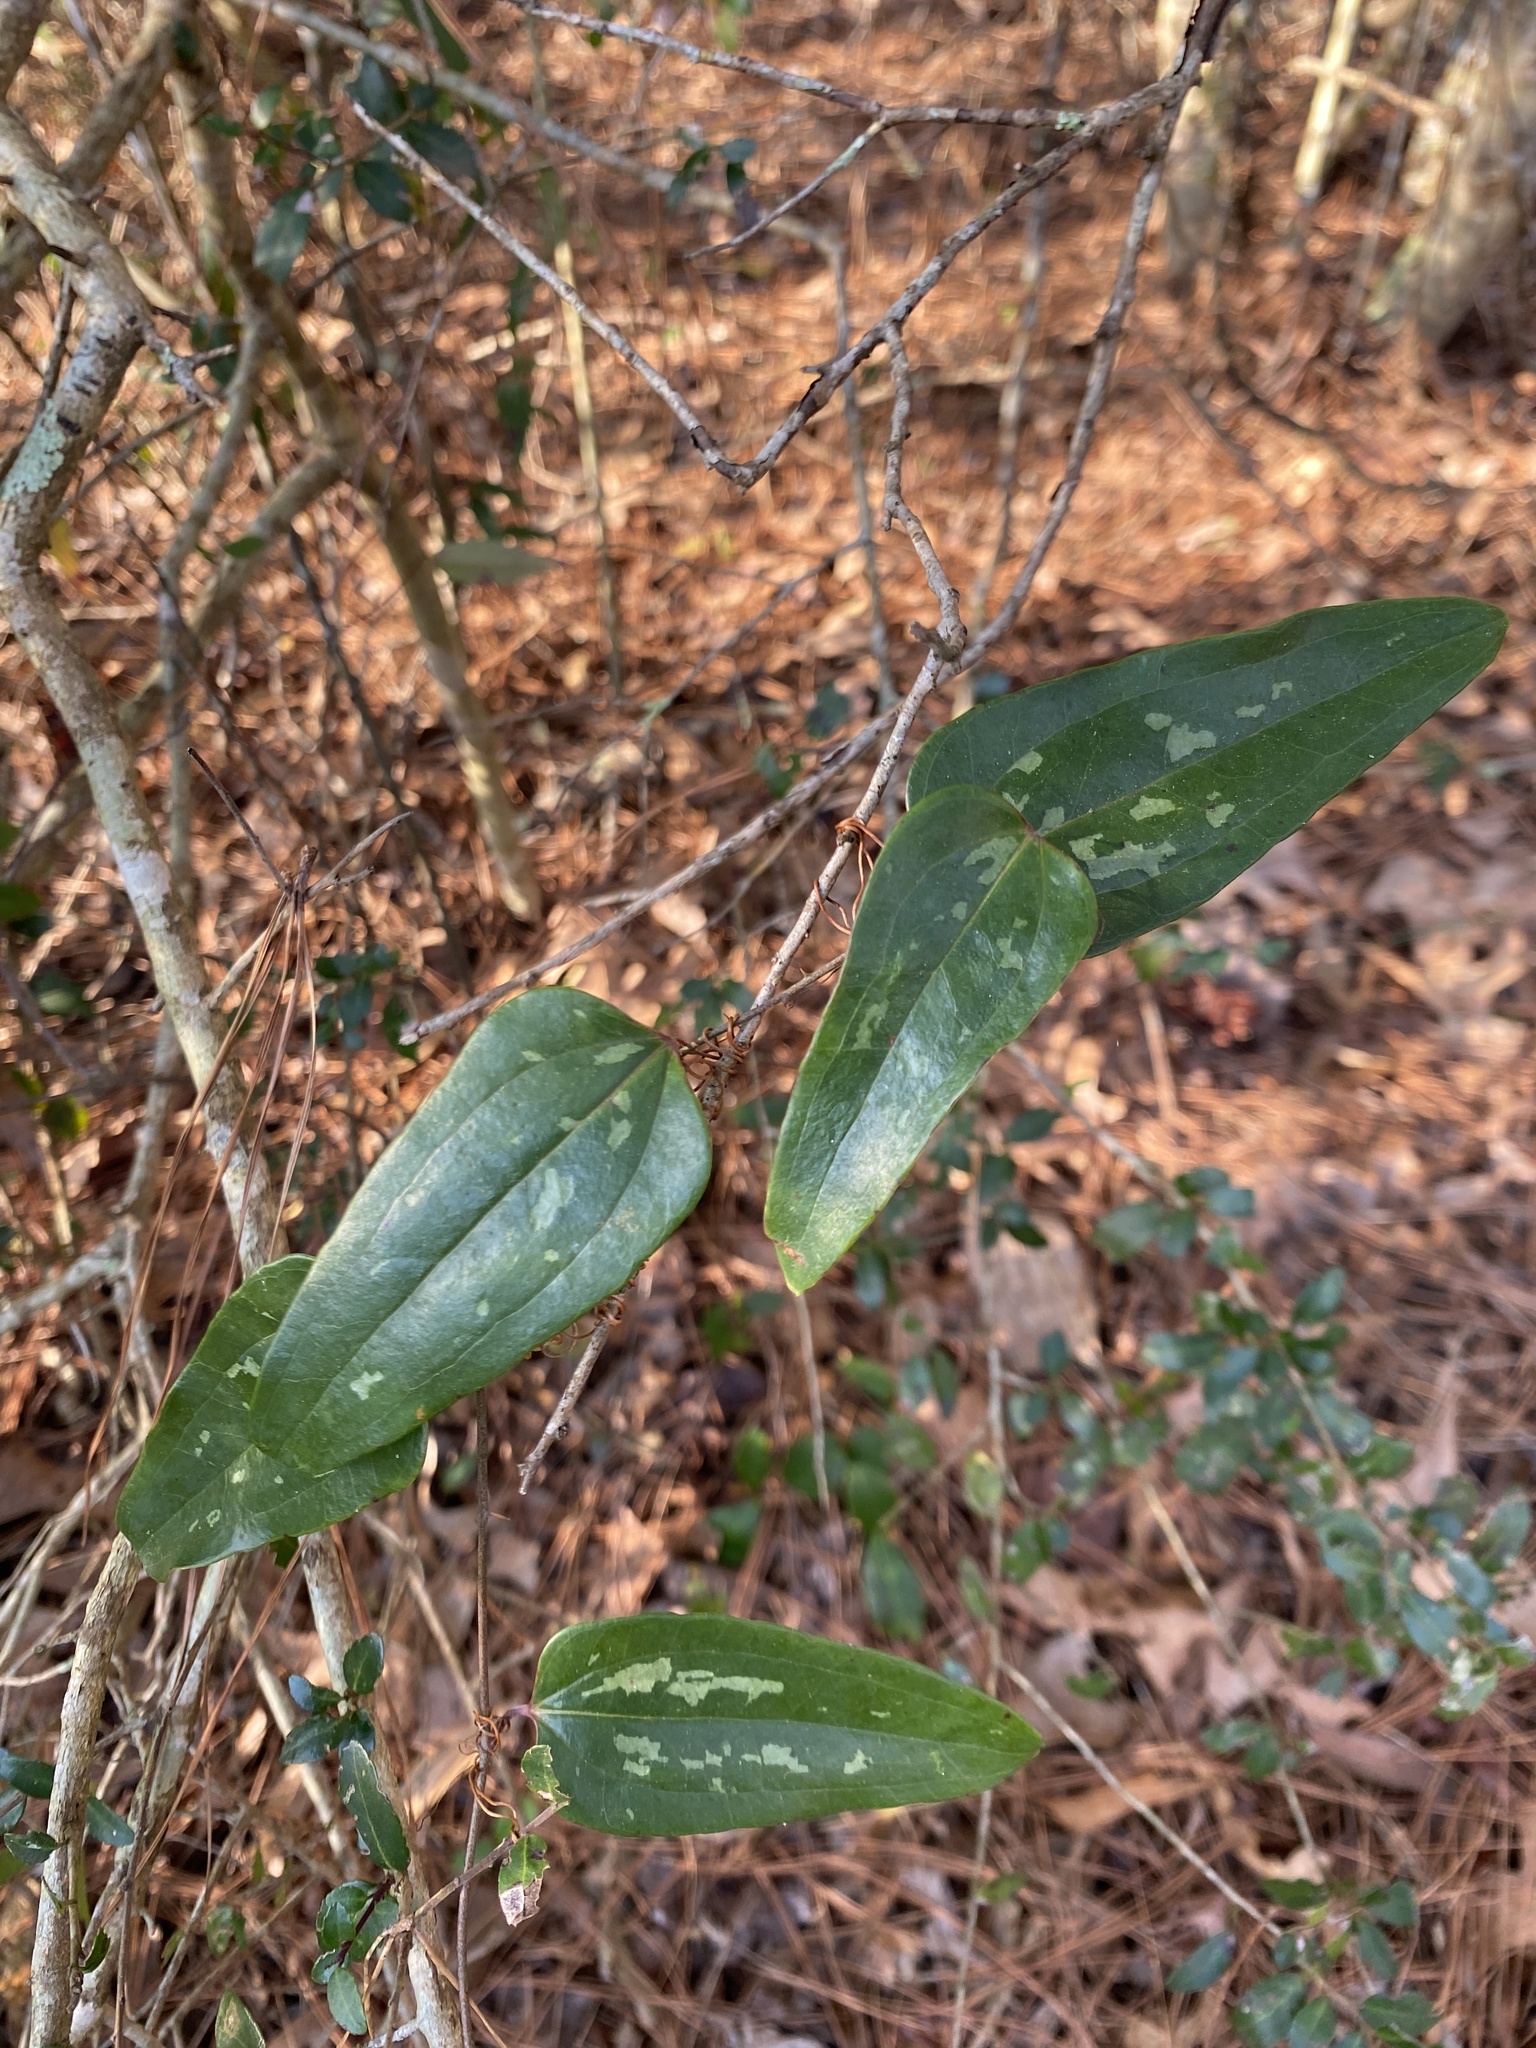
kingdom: Plantae
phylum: Tracheophyta
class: Liliopsida
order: Liliales
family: Smilacaceae
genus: Smilax
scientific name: Smilax glauca
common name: Cat greenbrier
